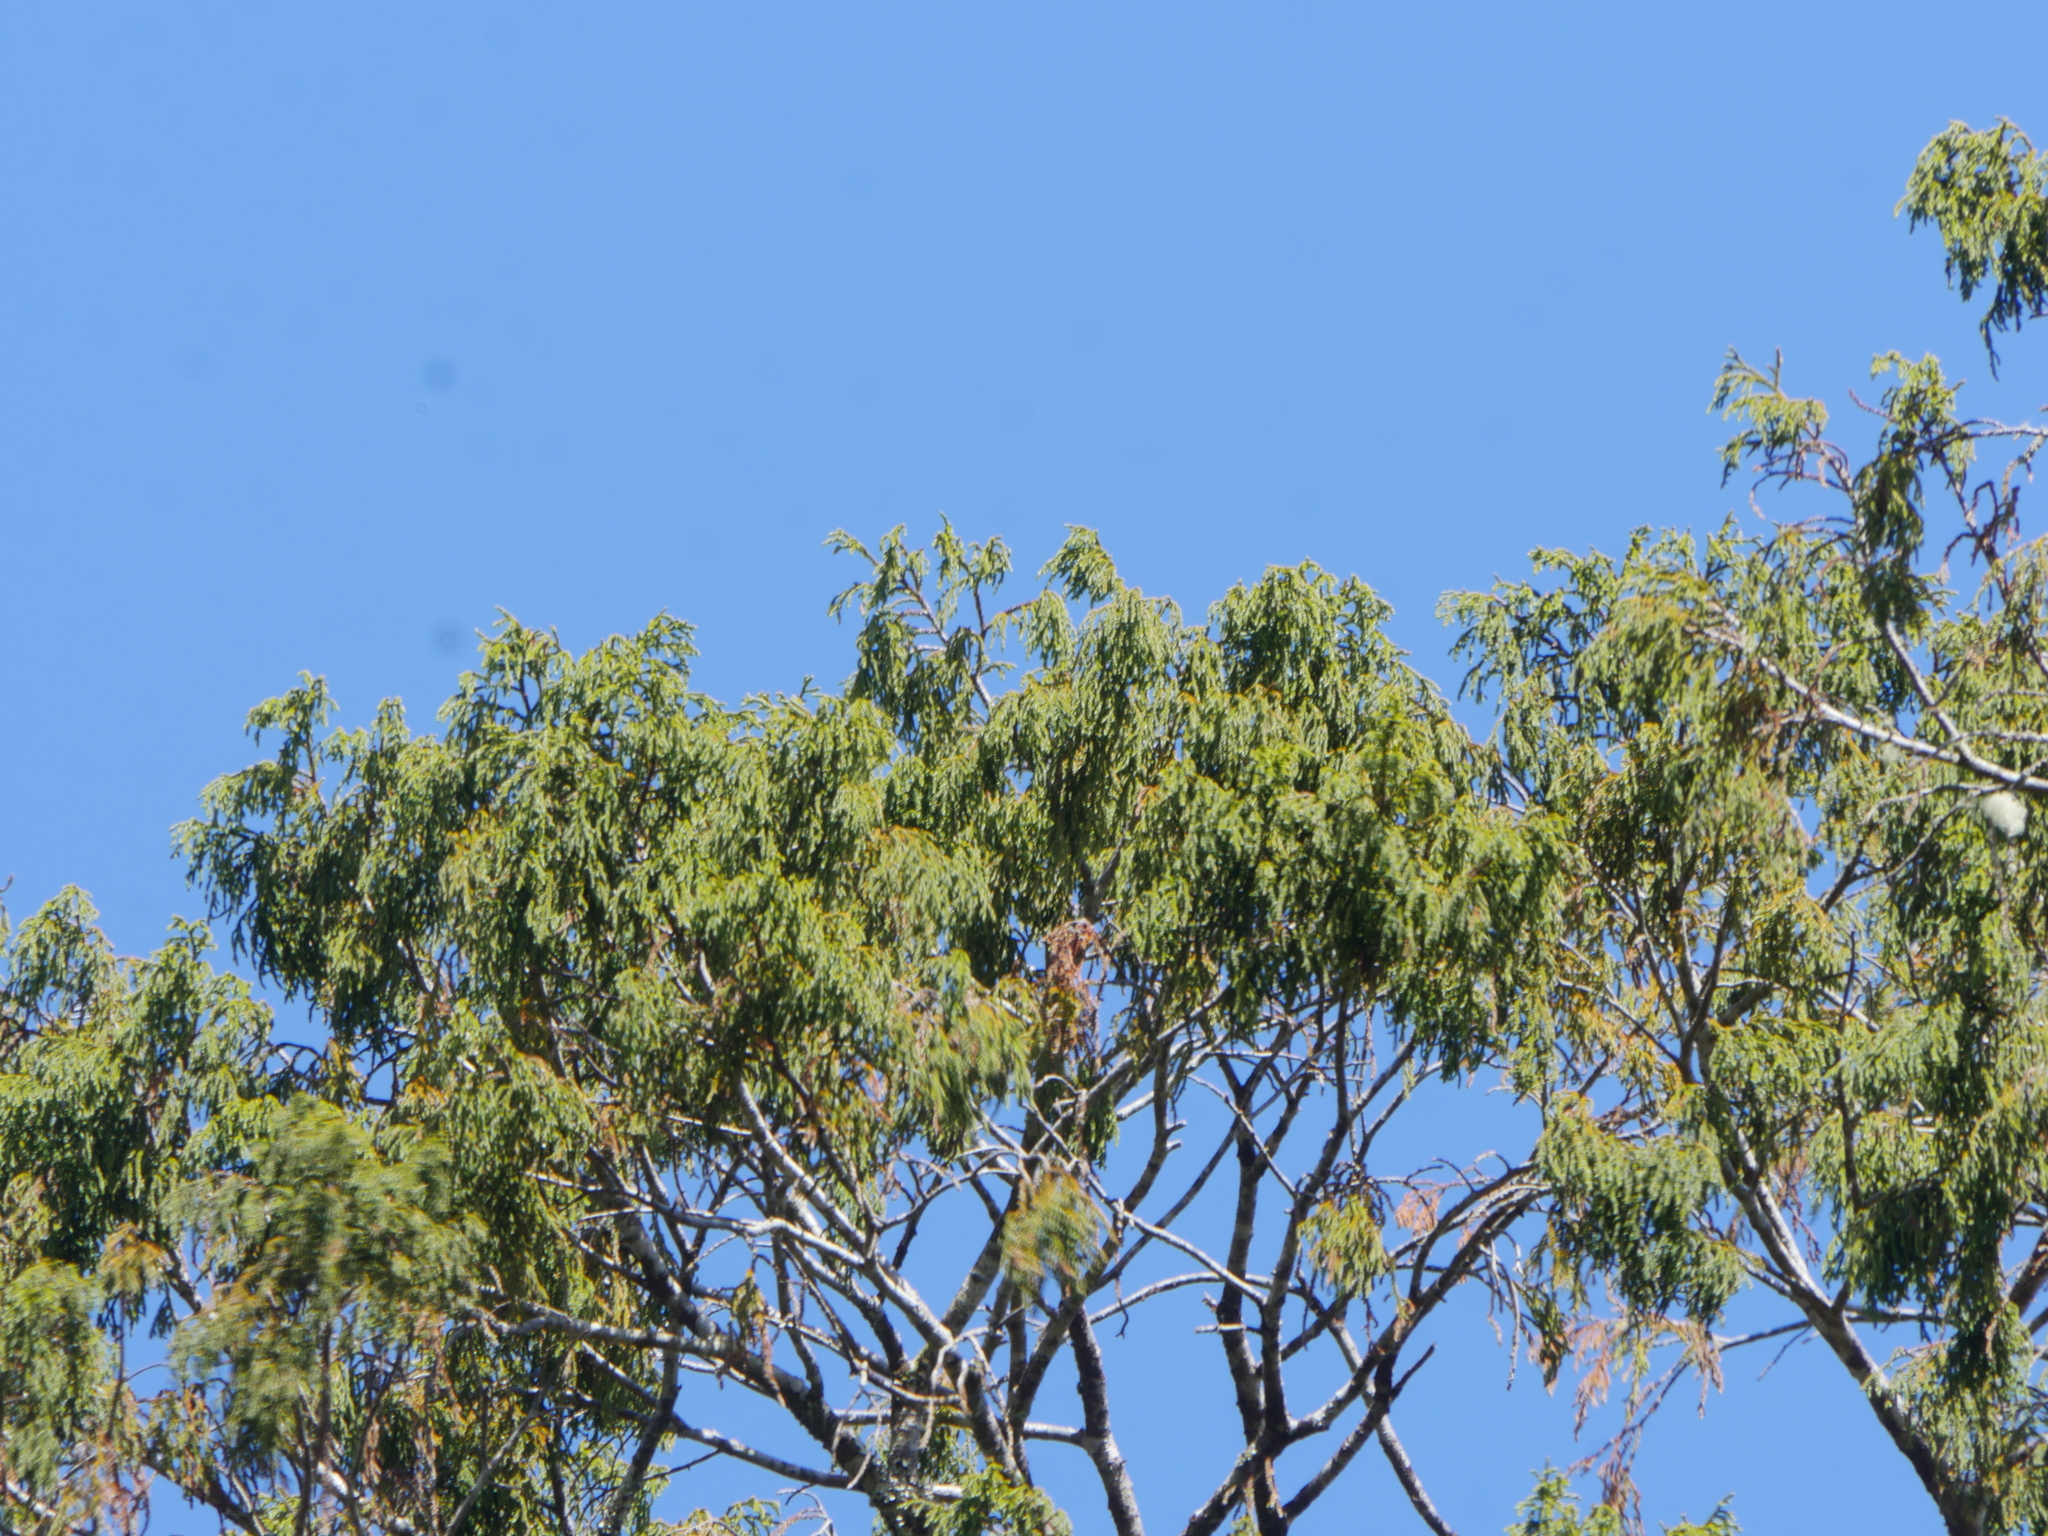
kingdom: Plantae
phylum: Tracheophyta
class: Pinopsida
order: Pinales
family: Podocarpaceae
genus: Dacrydium
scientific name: Dacrydium cupressinum
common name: Red pine
